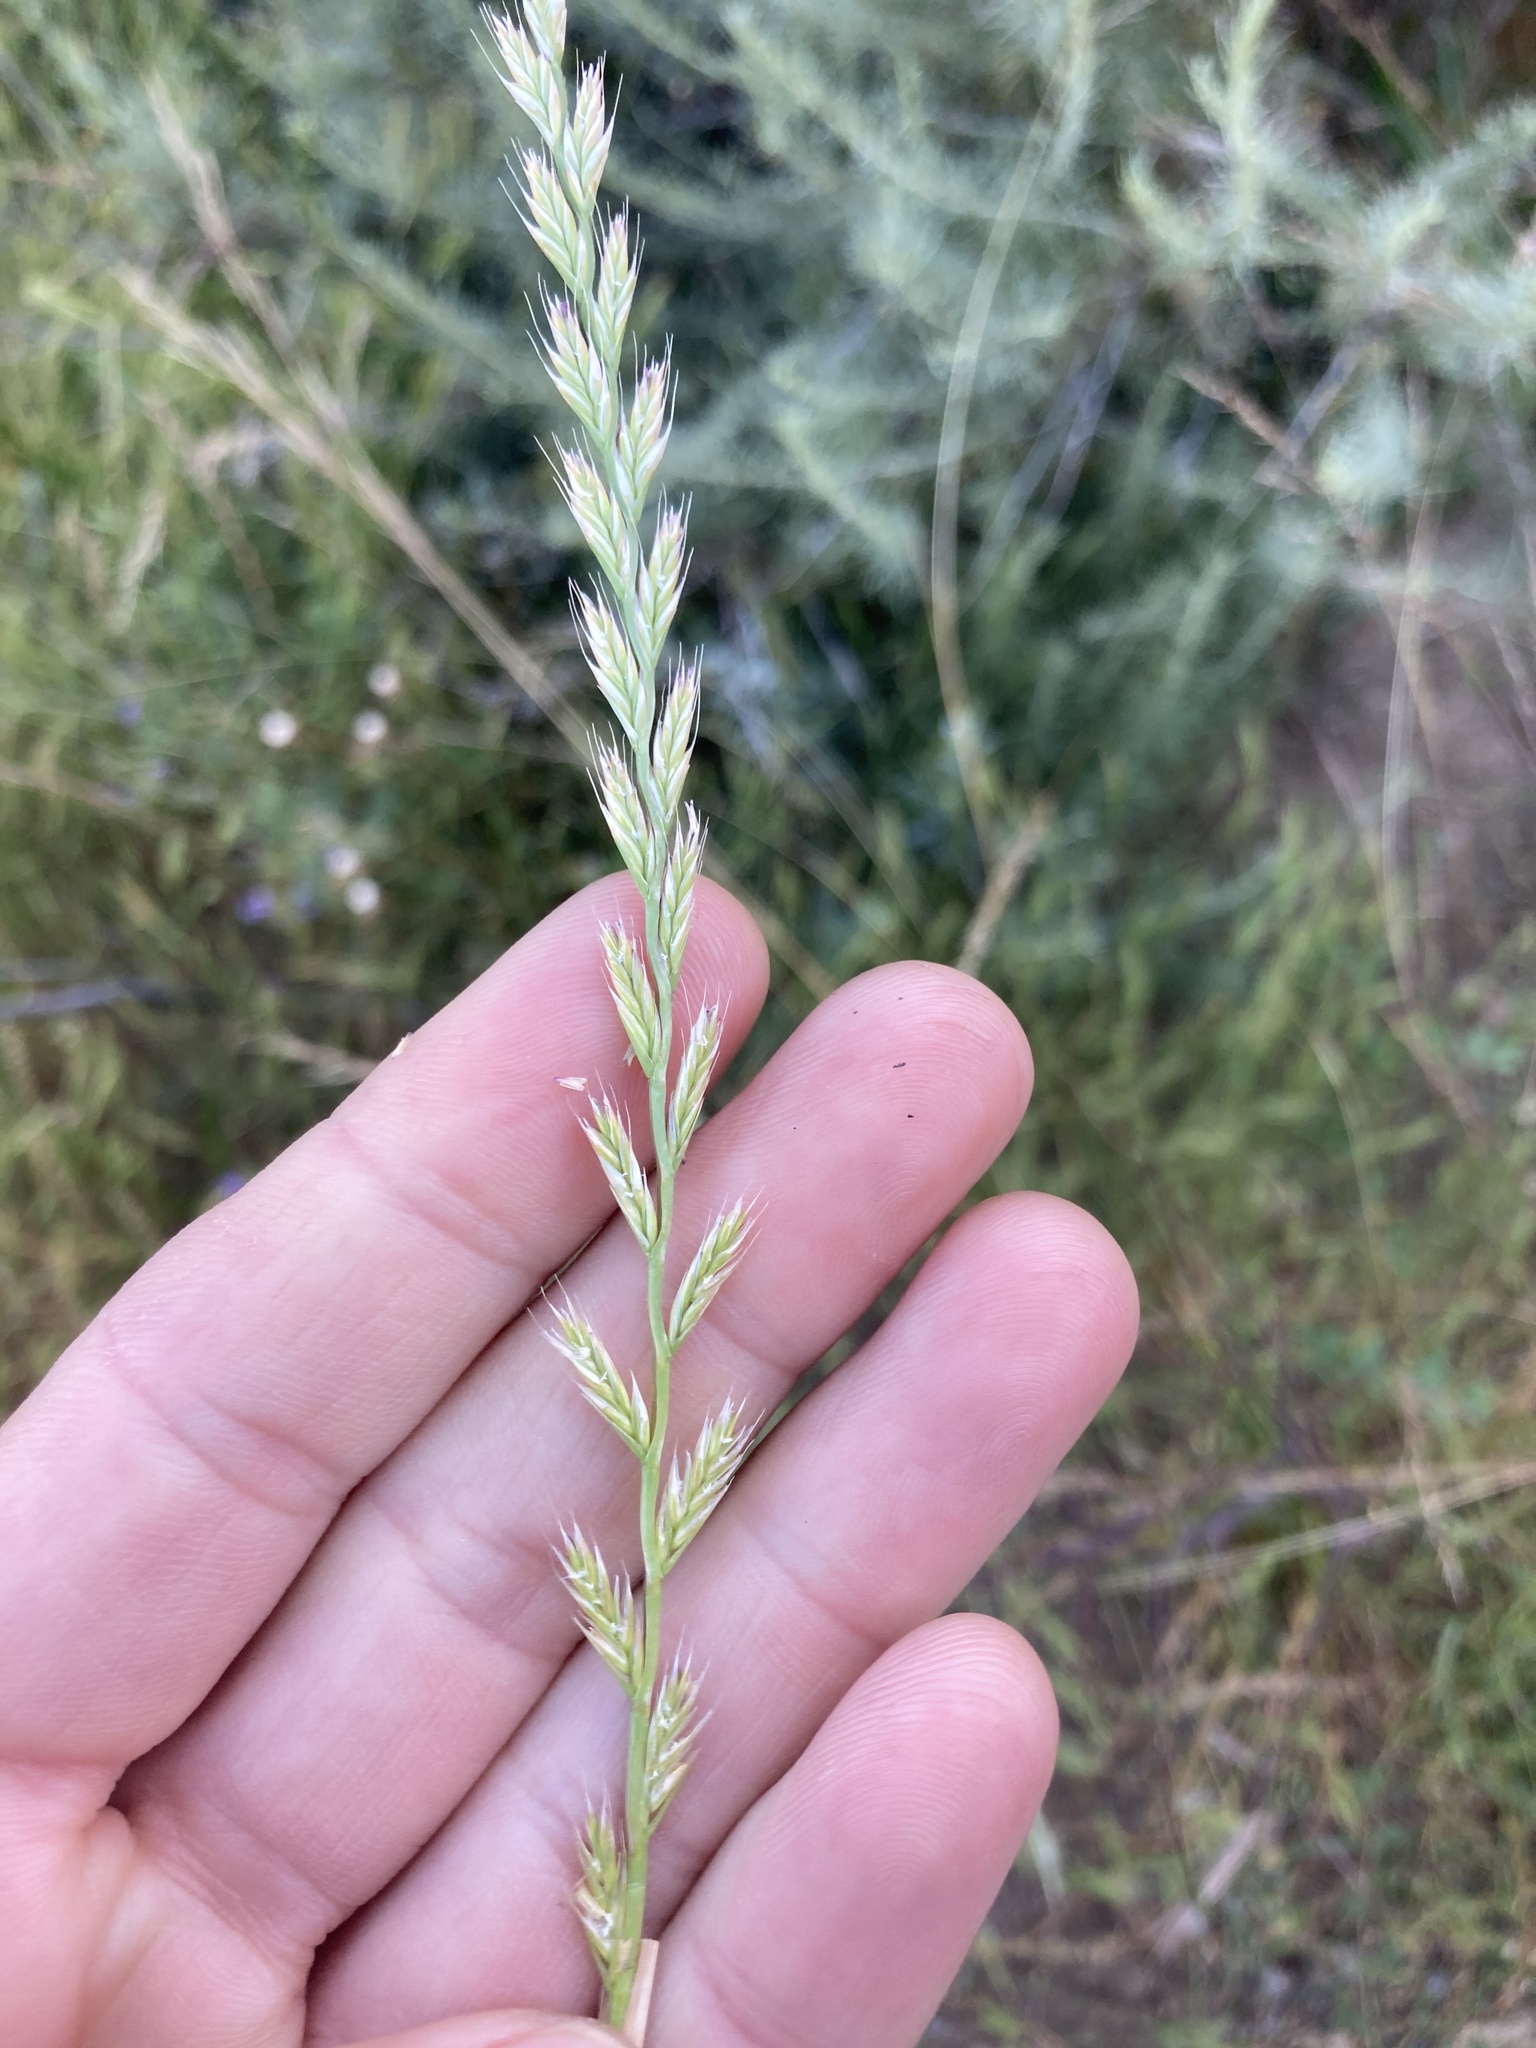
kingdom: Plantae
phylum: Tracheophyta
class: Liliopsida
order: Poales
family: Poaceae
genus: Lolium
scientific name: Lolium perenne
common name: Perennial ryegrass
